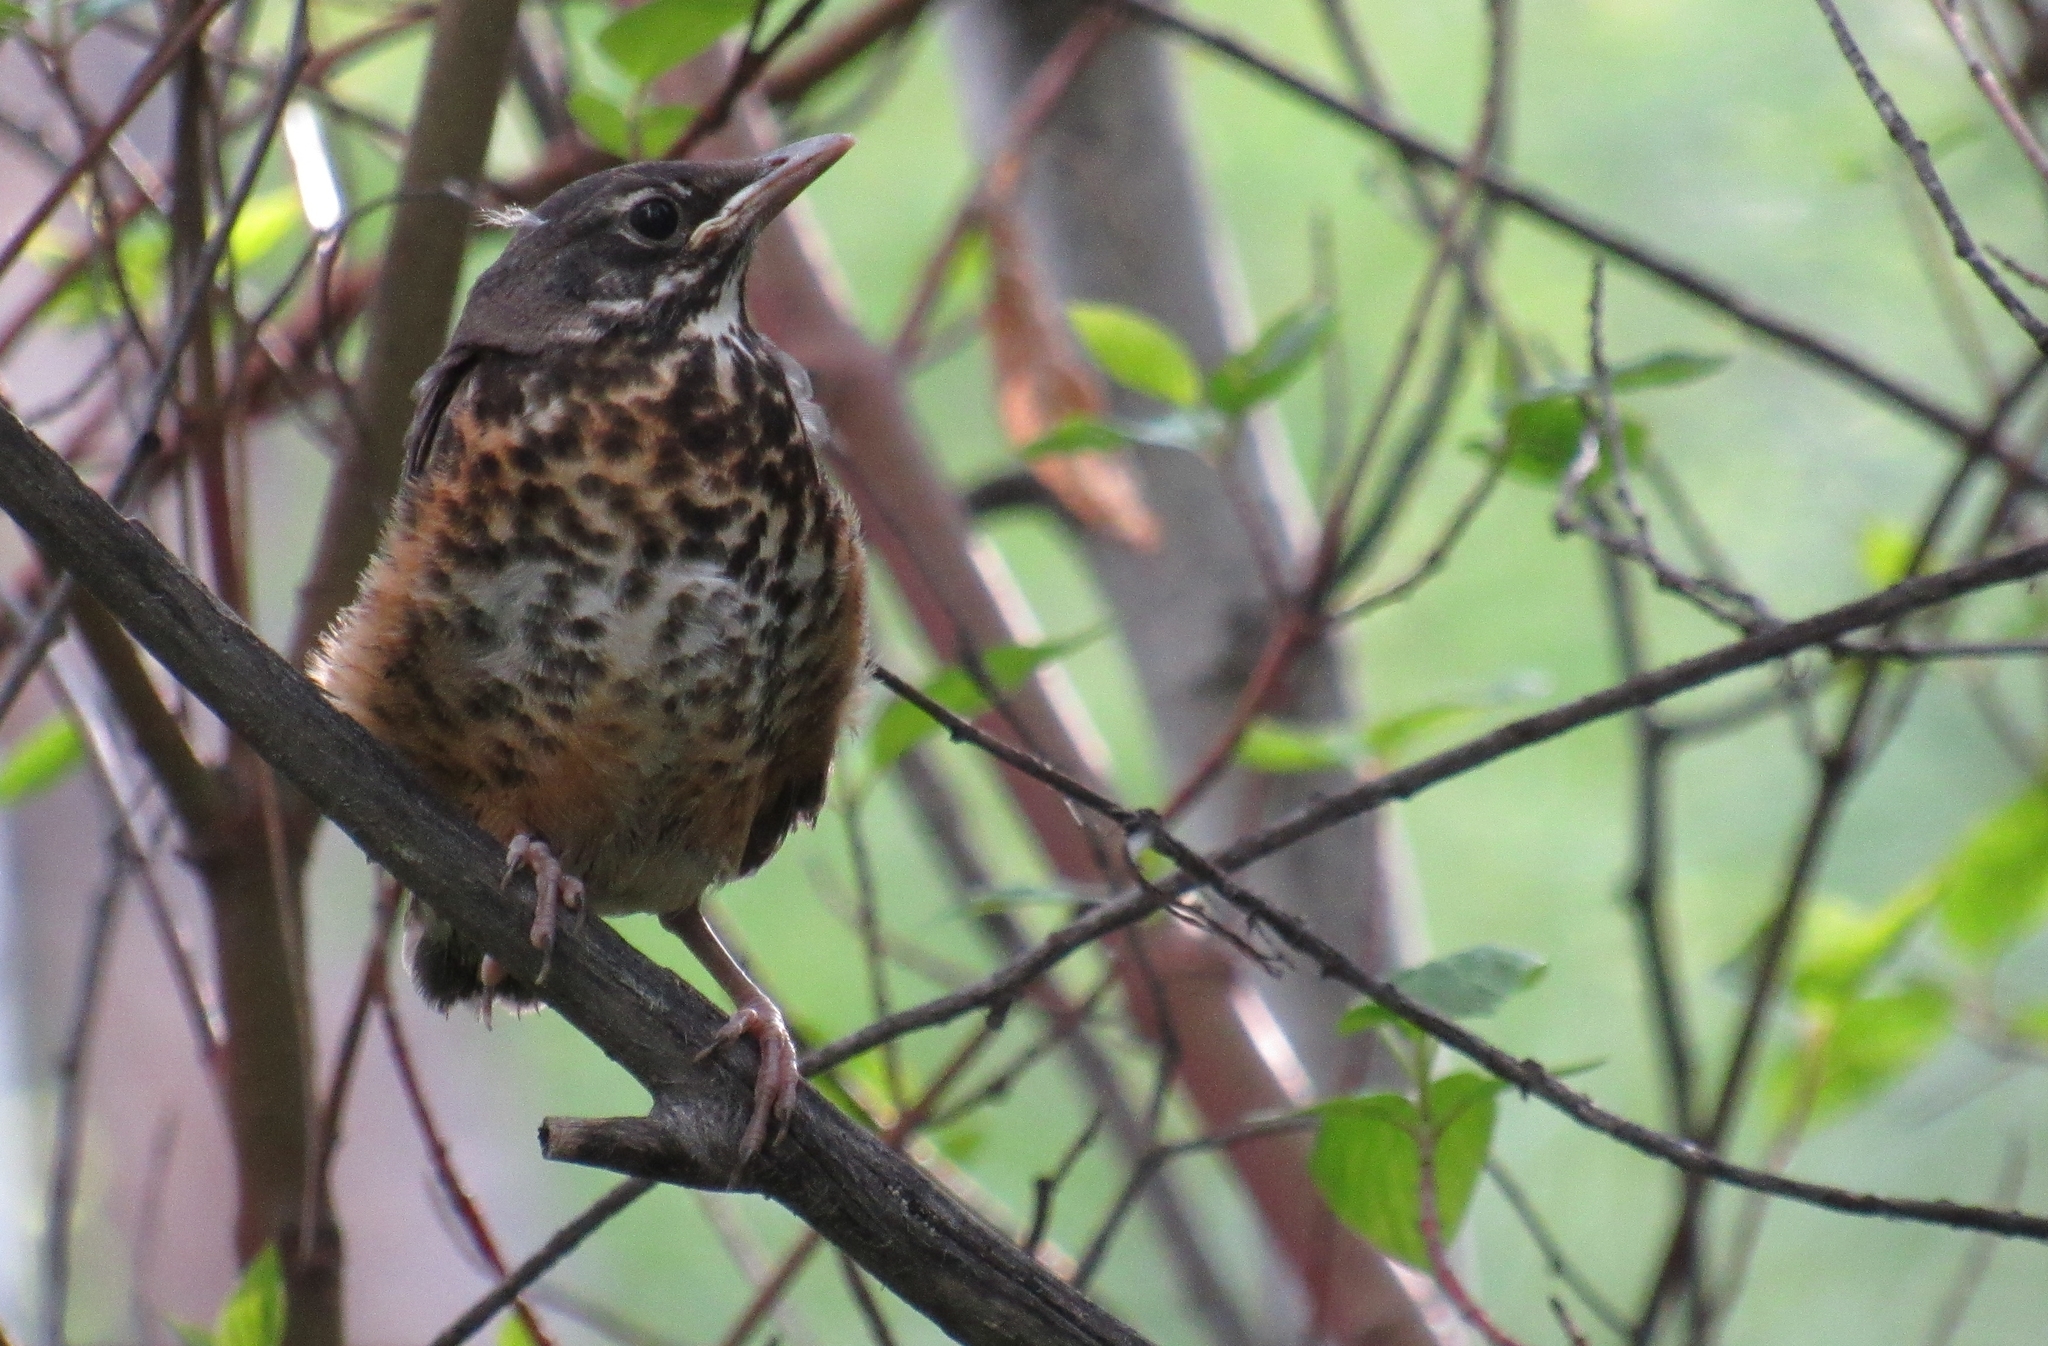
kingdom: Animalia
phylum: Chordata
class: Aves
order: Passeriformes
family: Turdidae
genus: Turdus
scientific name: Turdus migratorius
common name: American robin
